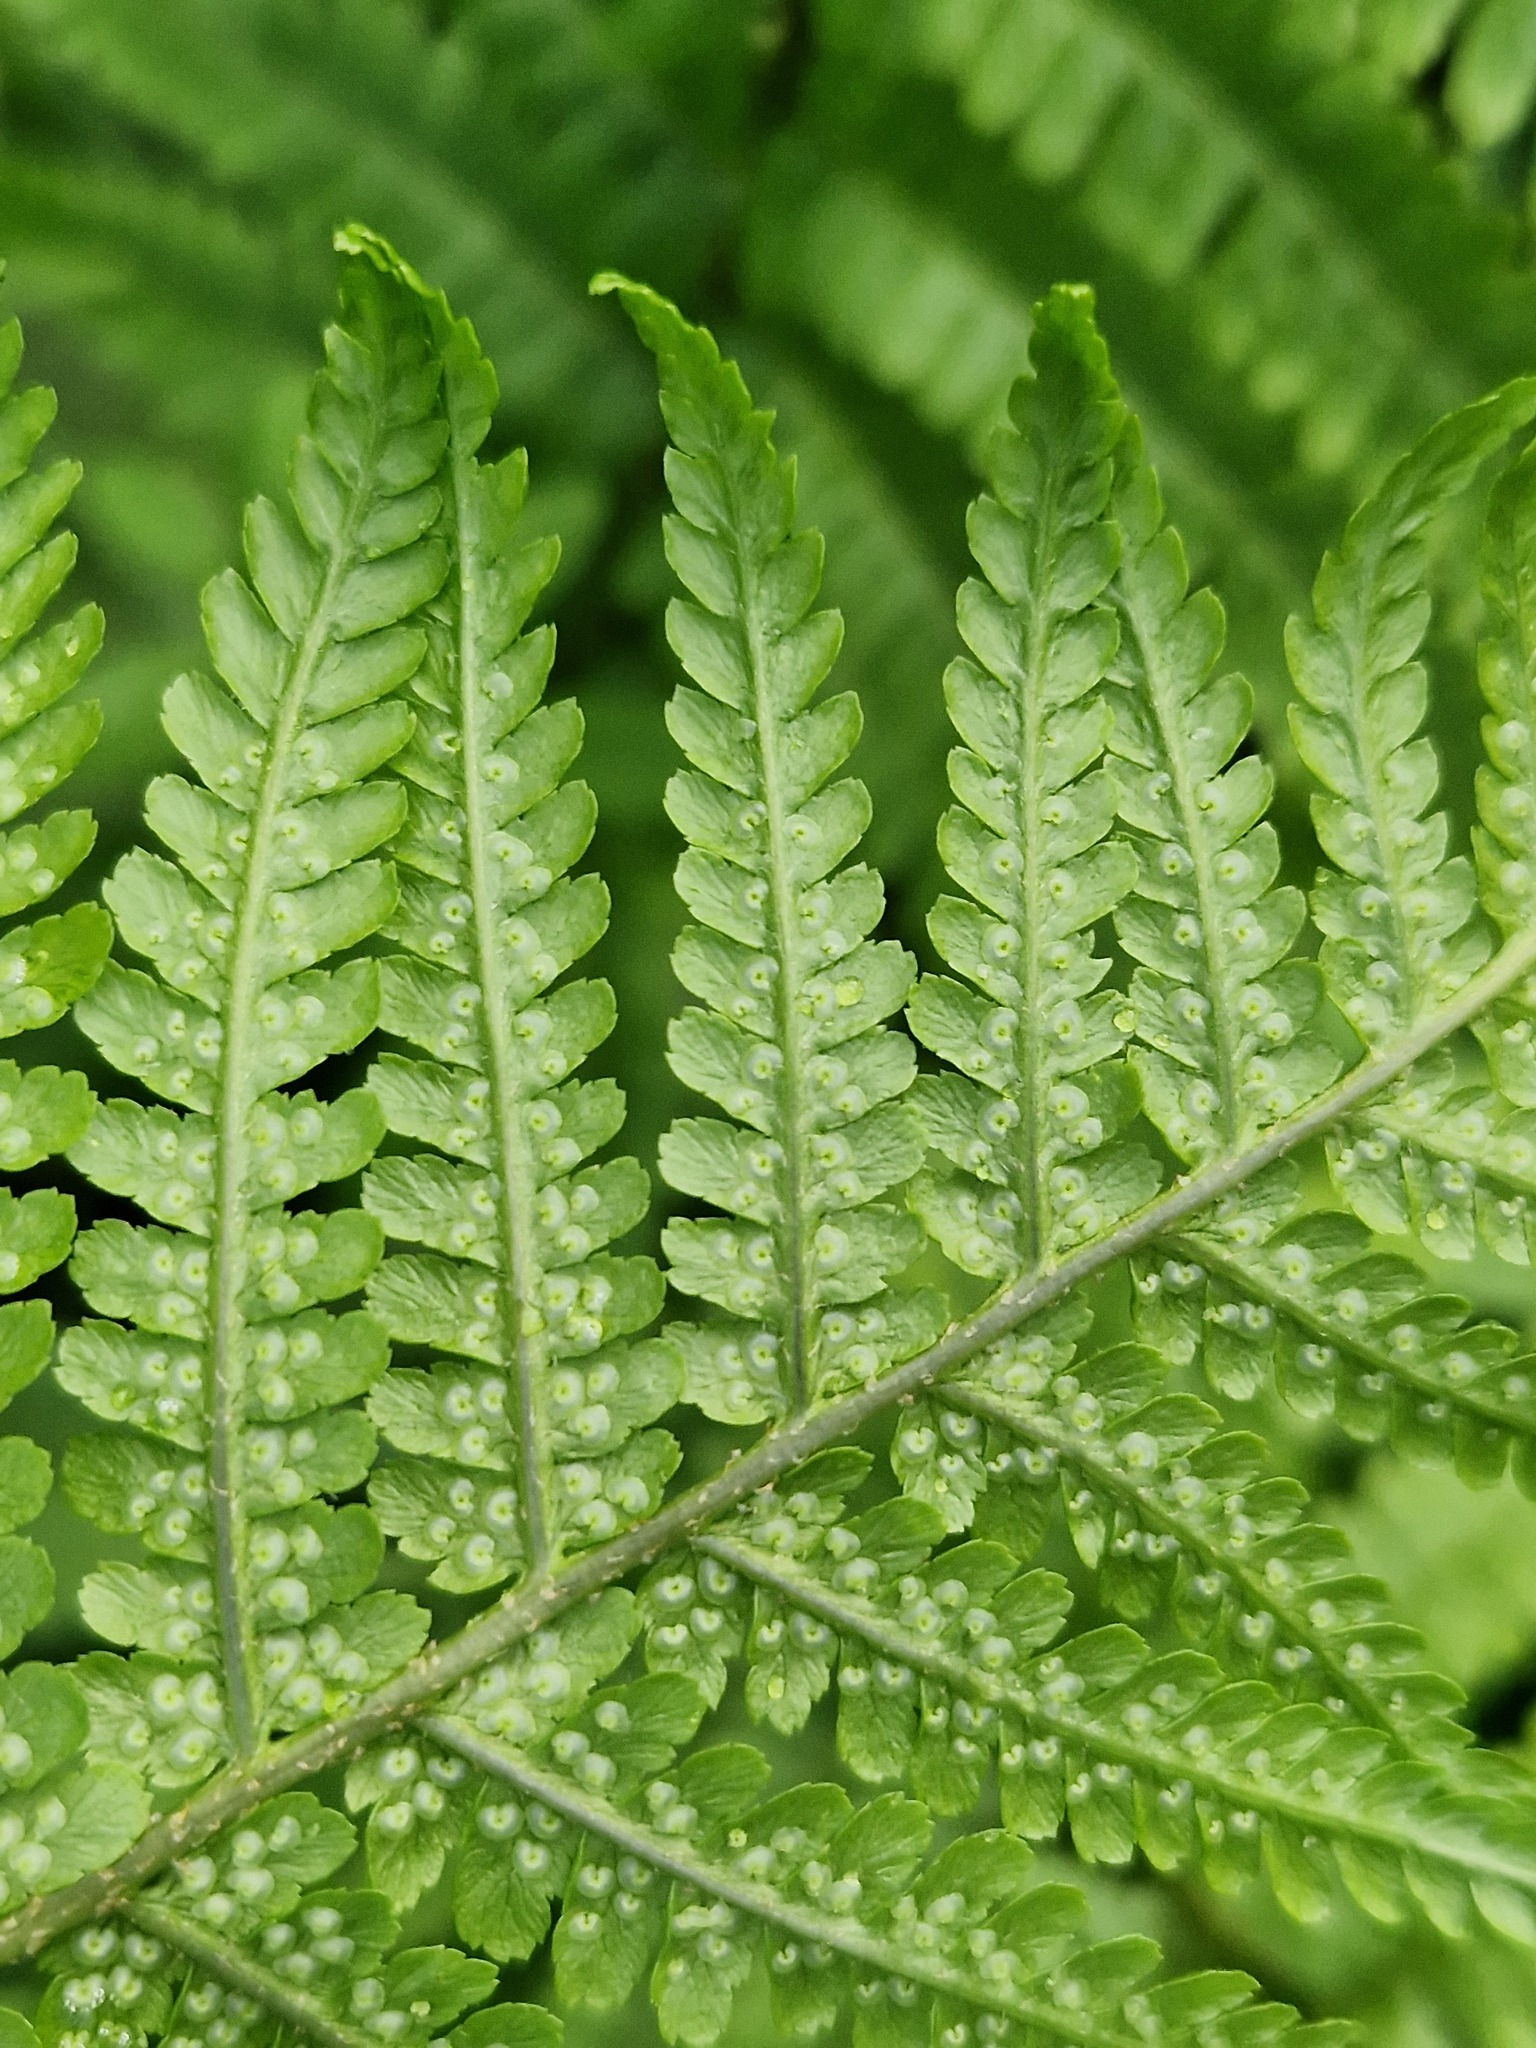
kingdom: Plantae
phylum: Tracheophyta
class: Polypodiopsida
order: Polypodiales
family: Dryopteridaceae
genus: Dryopteris
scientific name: Dryopteris filix-mas
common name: Male fern
